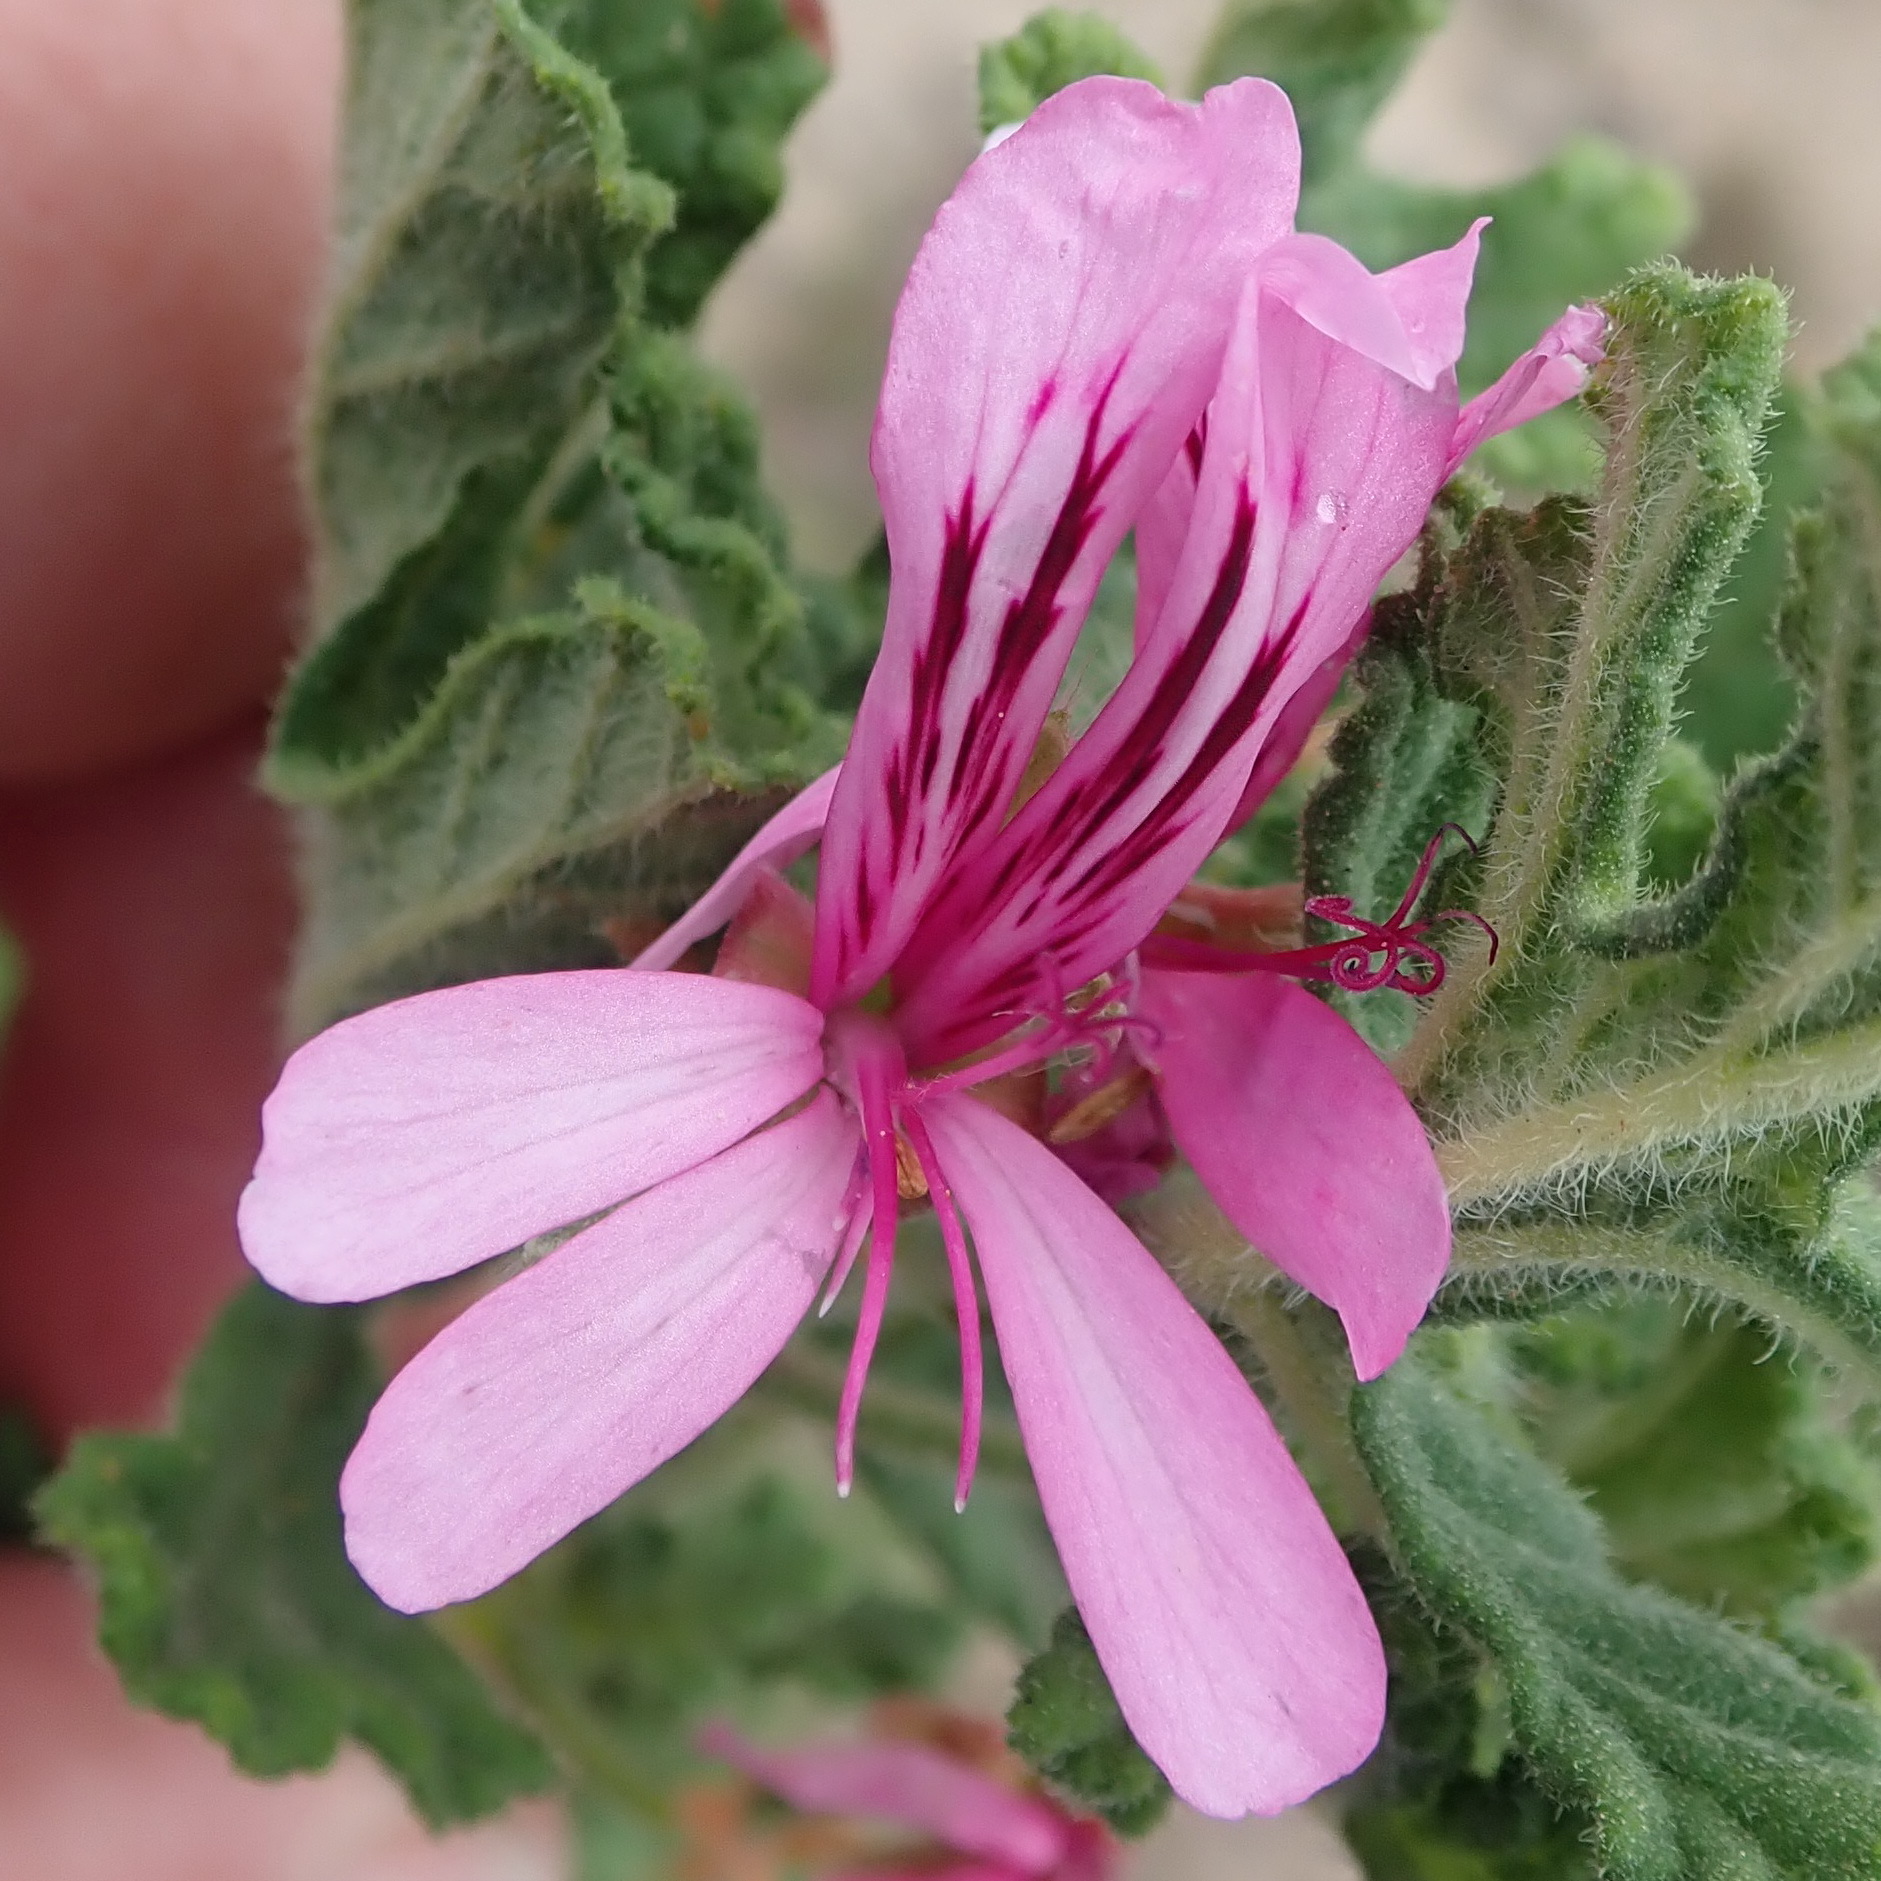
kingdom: Plantae
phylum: Tracheophyta
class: Magnoliopsida
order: Geraniales
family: Geraniaceae
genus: Pelargonium
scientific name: Pelargonium quercifolium
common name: Oakleaf geranium
